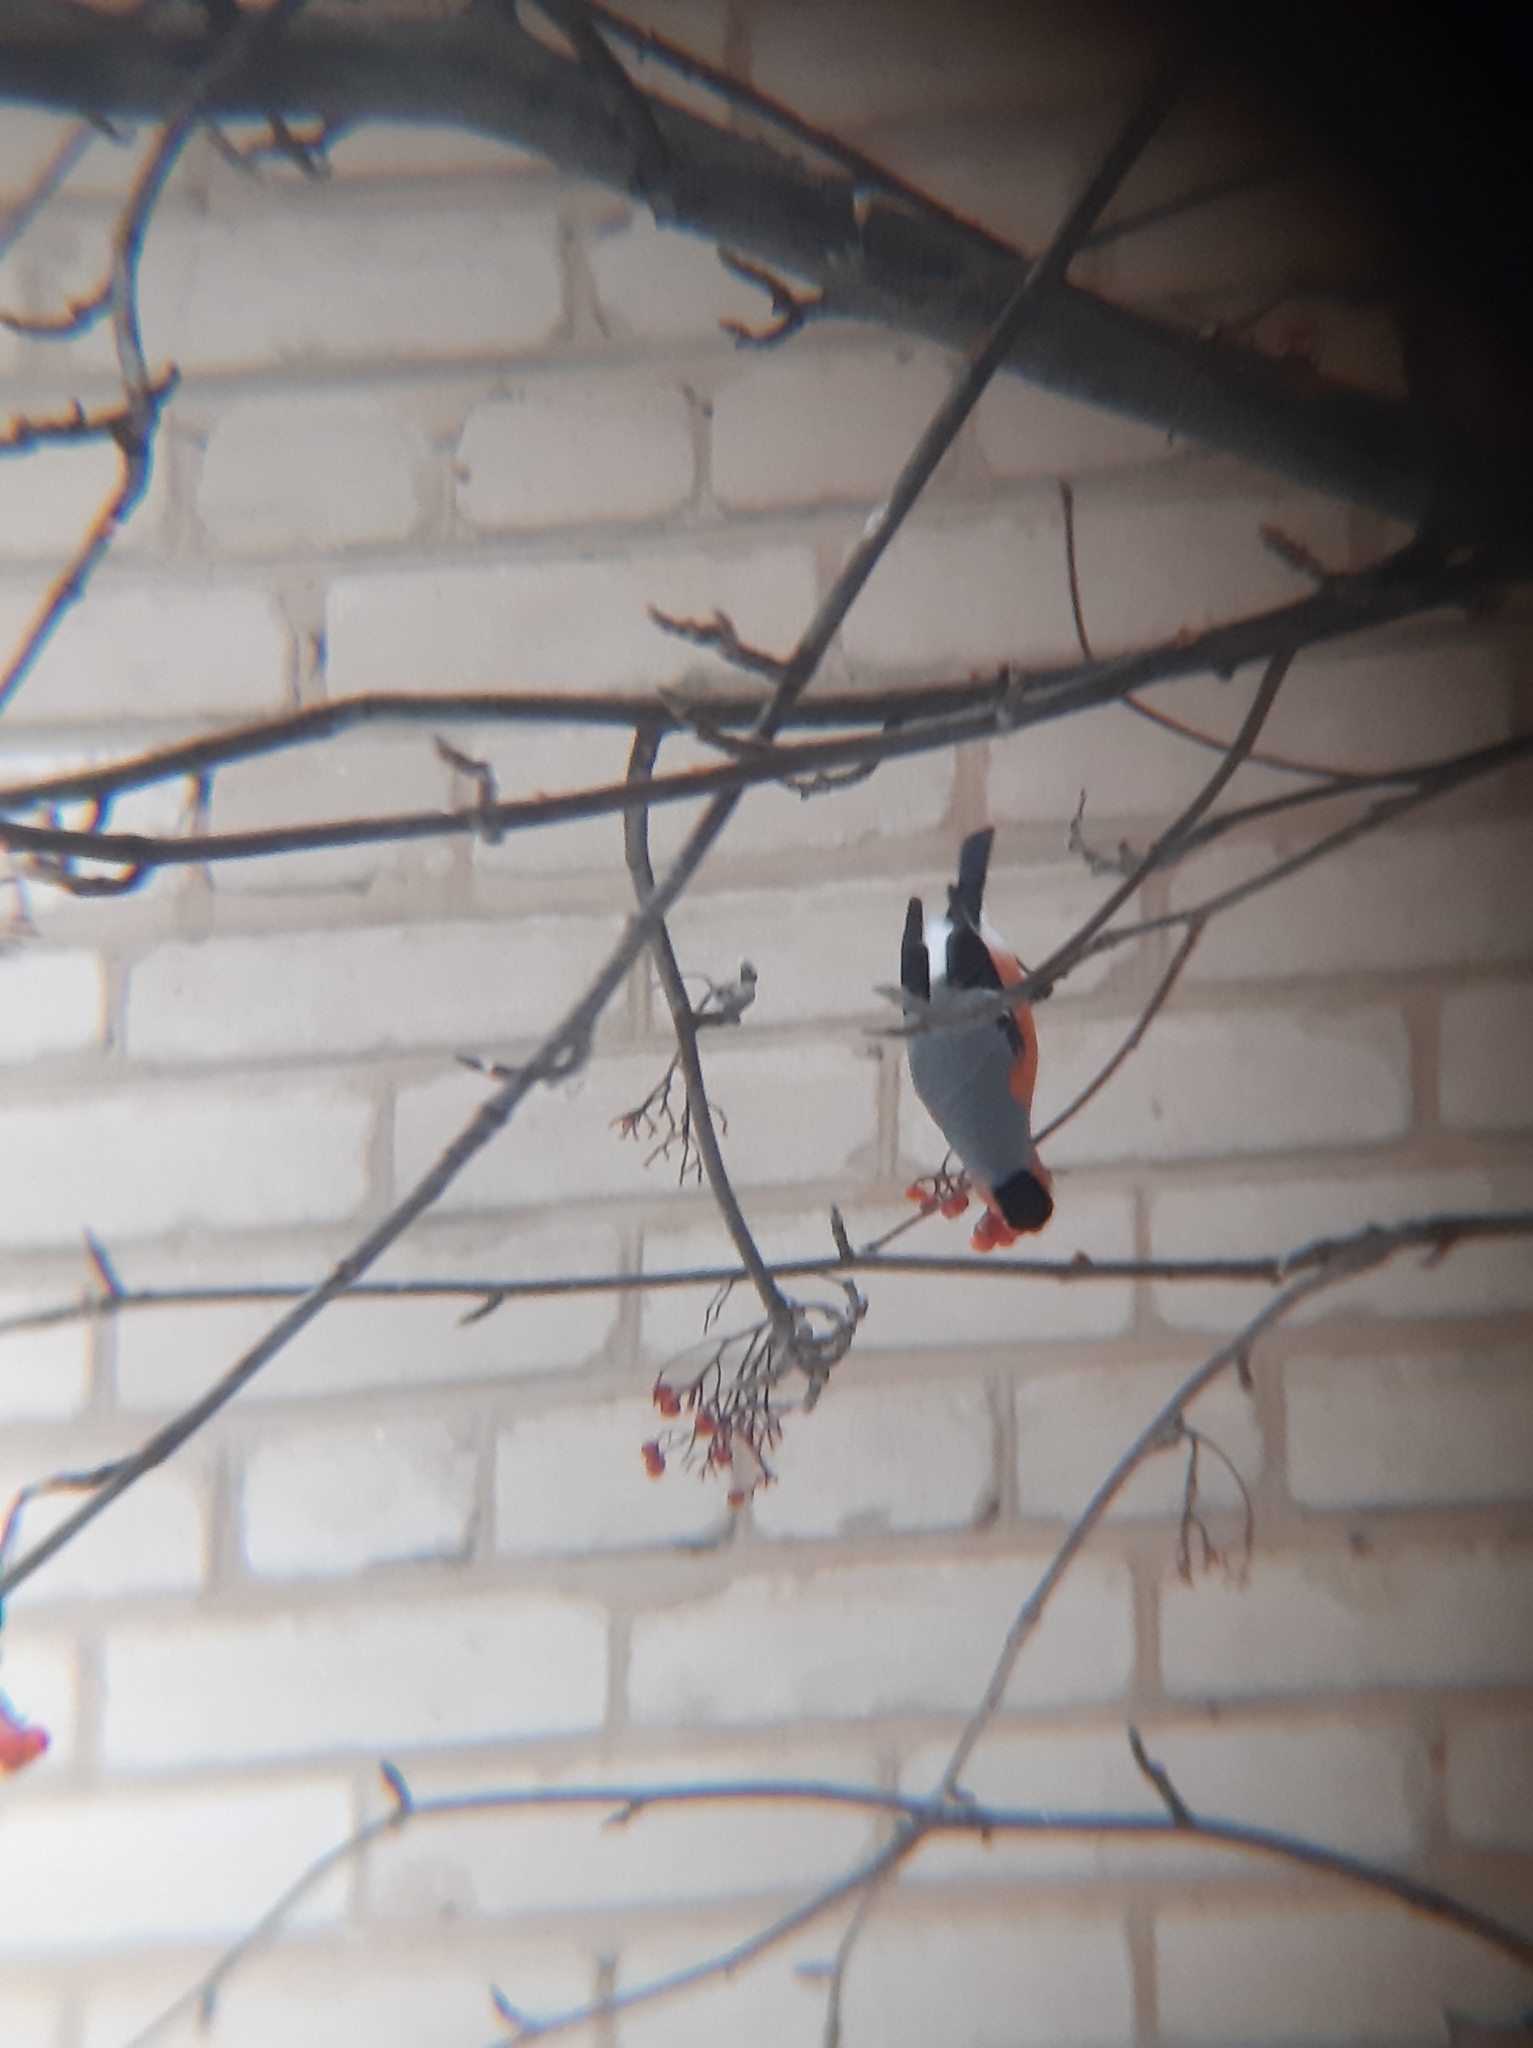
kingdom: Animalia
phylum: Chordata
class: Aves
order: Passeriformes
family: Fringillidae
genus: Pyrrhula
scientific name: Pyrrhula pyrrhula
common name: Eurasian bullfinch
